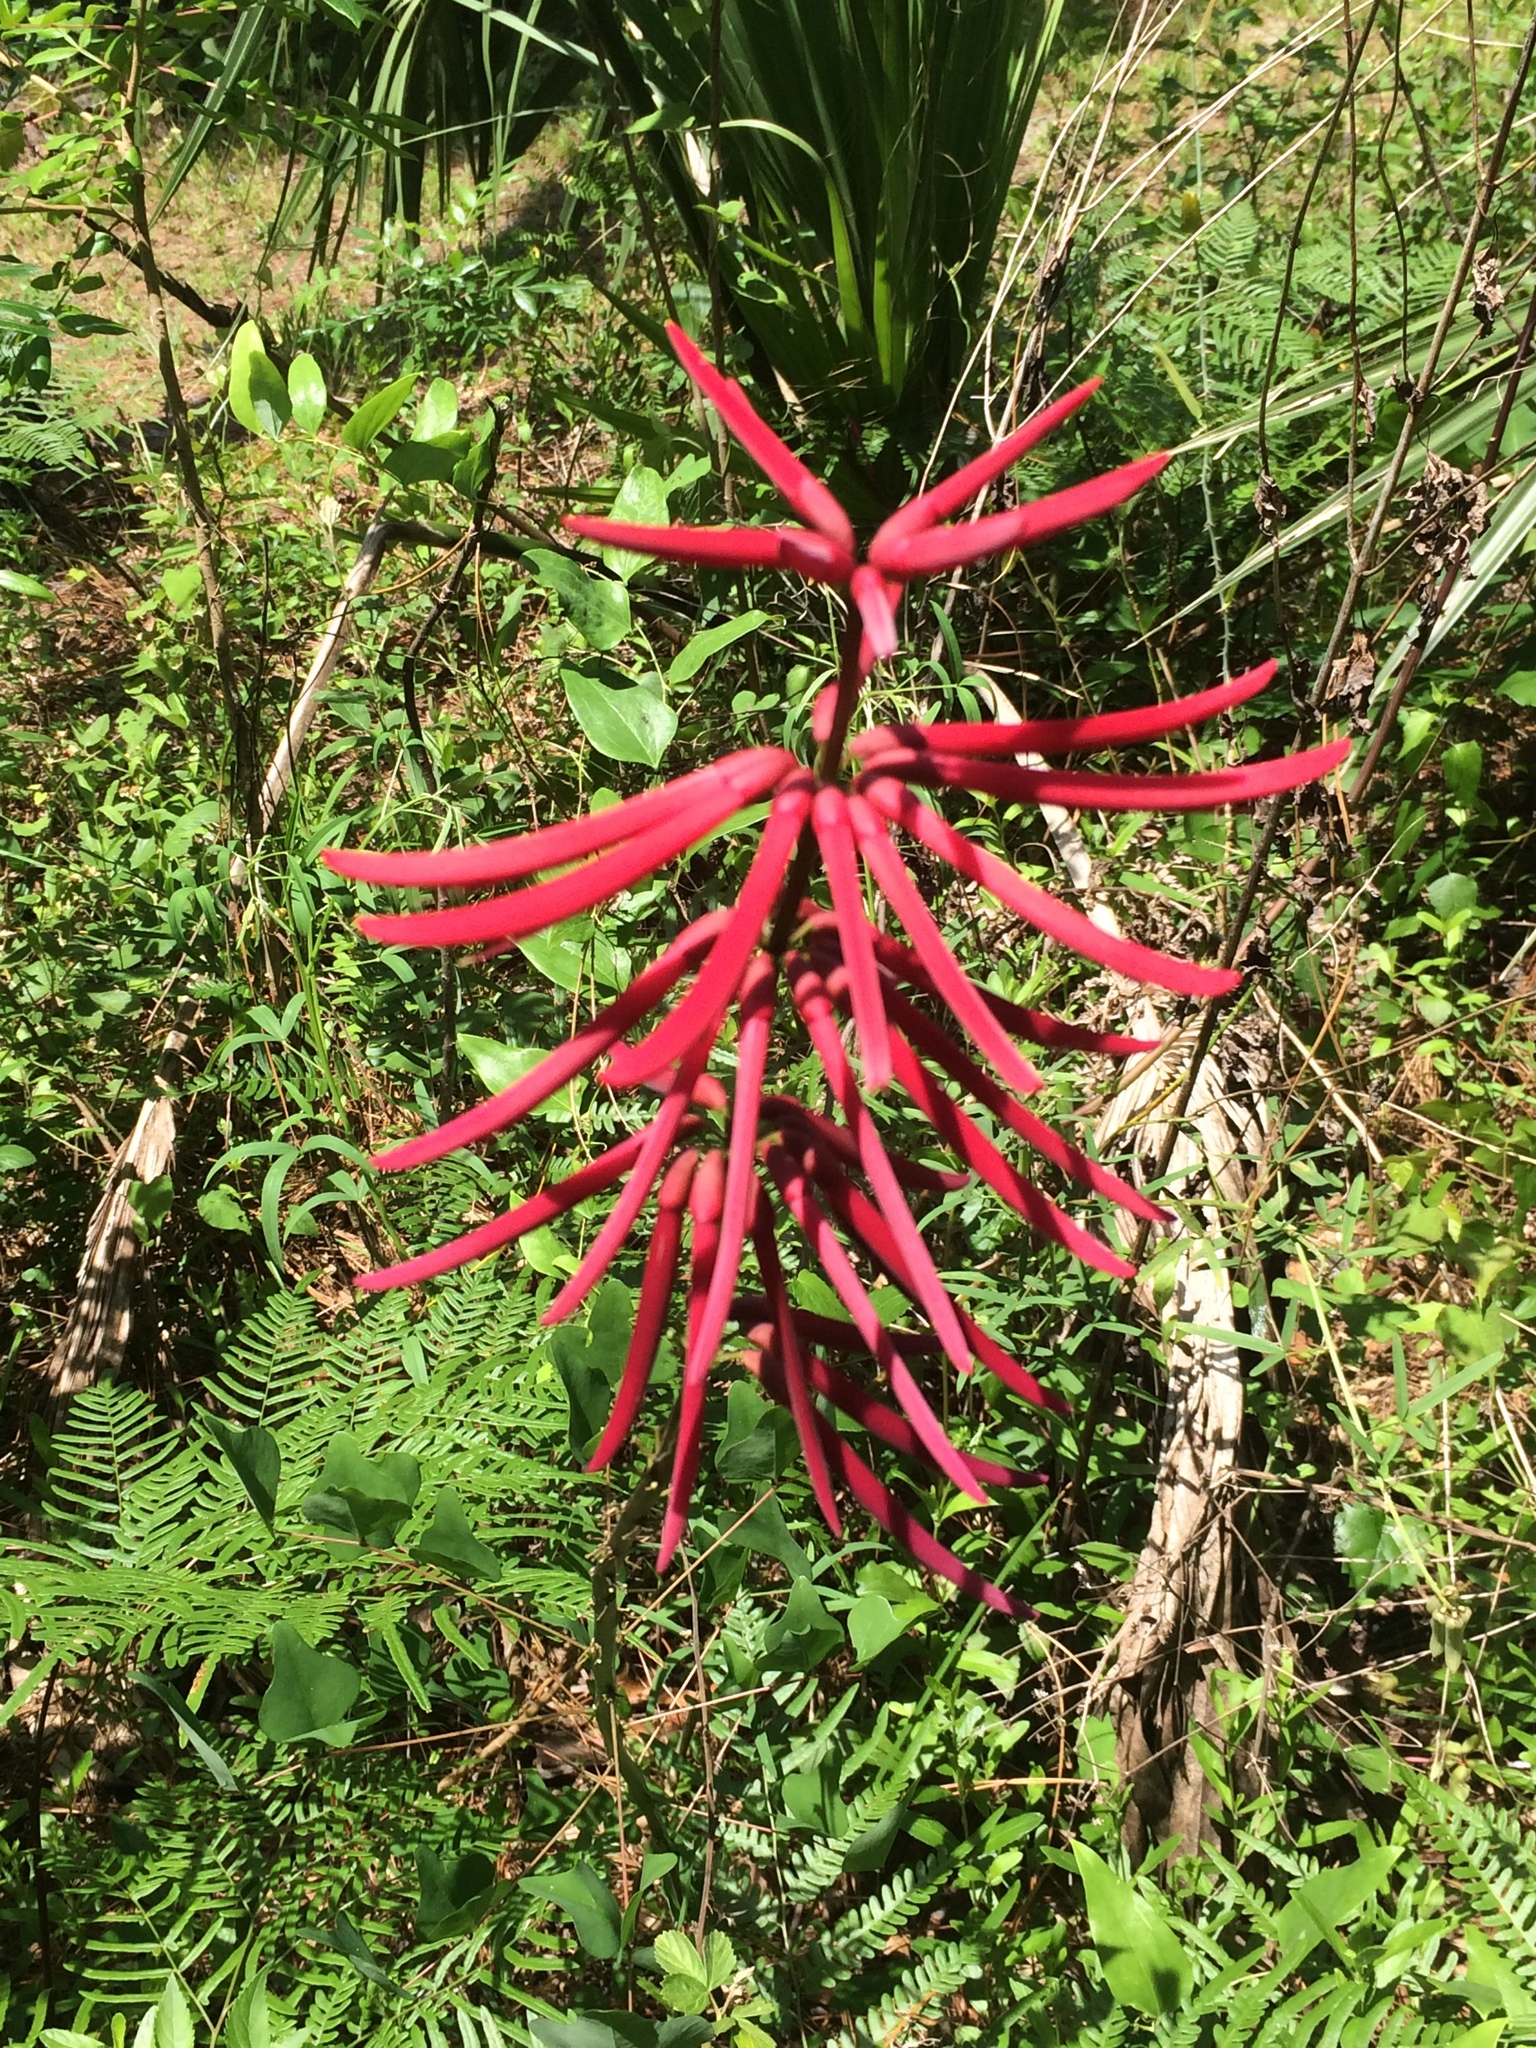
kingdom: Plantae
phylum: Tracheophyta
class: Magnoliopsida
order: Fabales
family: Fabaceae
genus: Erythrina
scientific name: Erythrina herbacea
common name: Coral-bean
